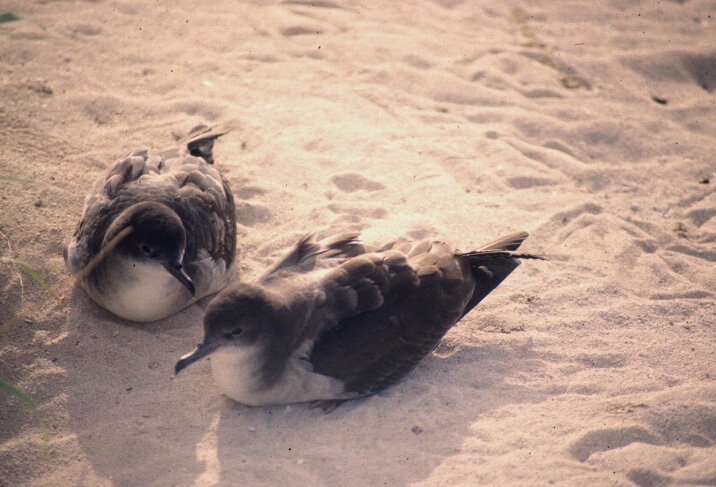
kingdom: Animalia
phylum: Chordata
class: Aves
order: Procellariiformes
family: Procellariidae
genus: Puffinus
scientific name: Puffinus pacificus
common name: Wedge-tailed shearwater
